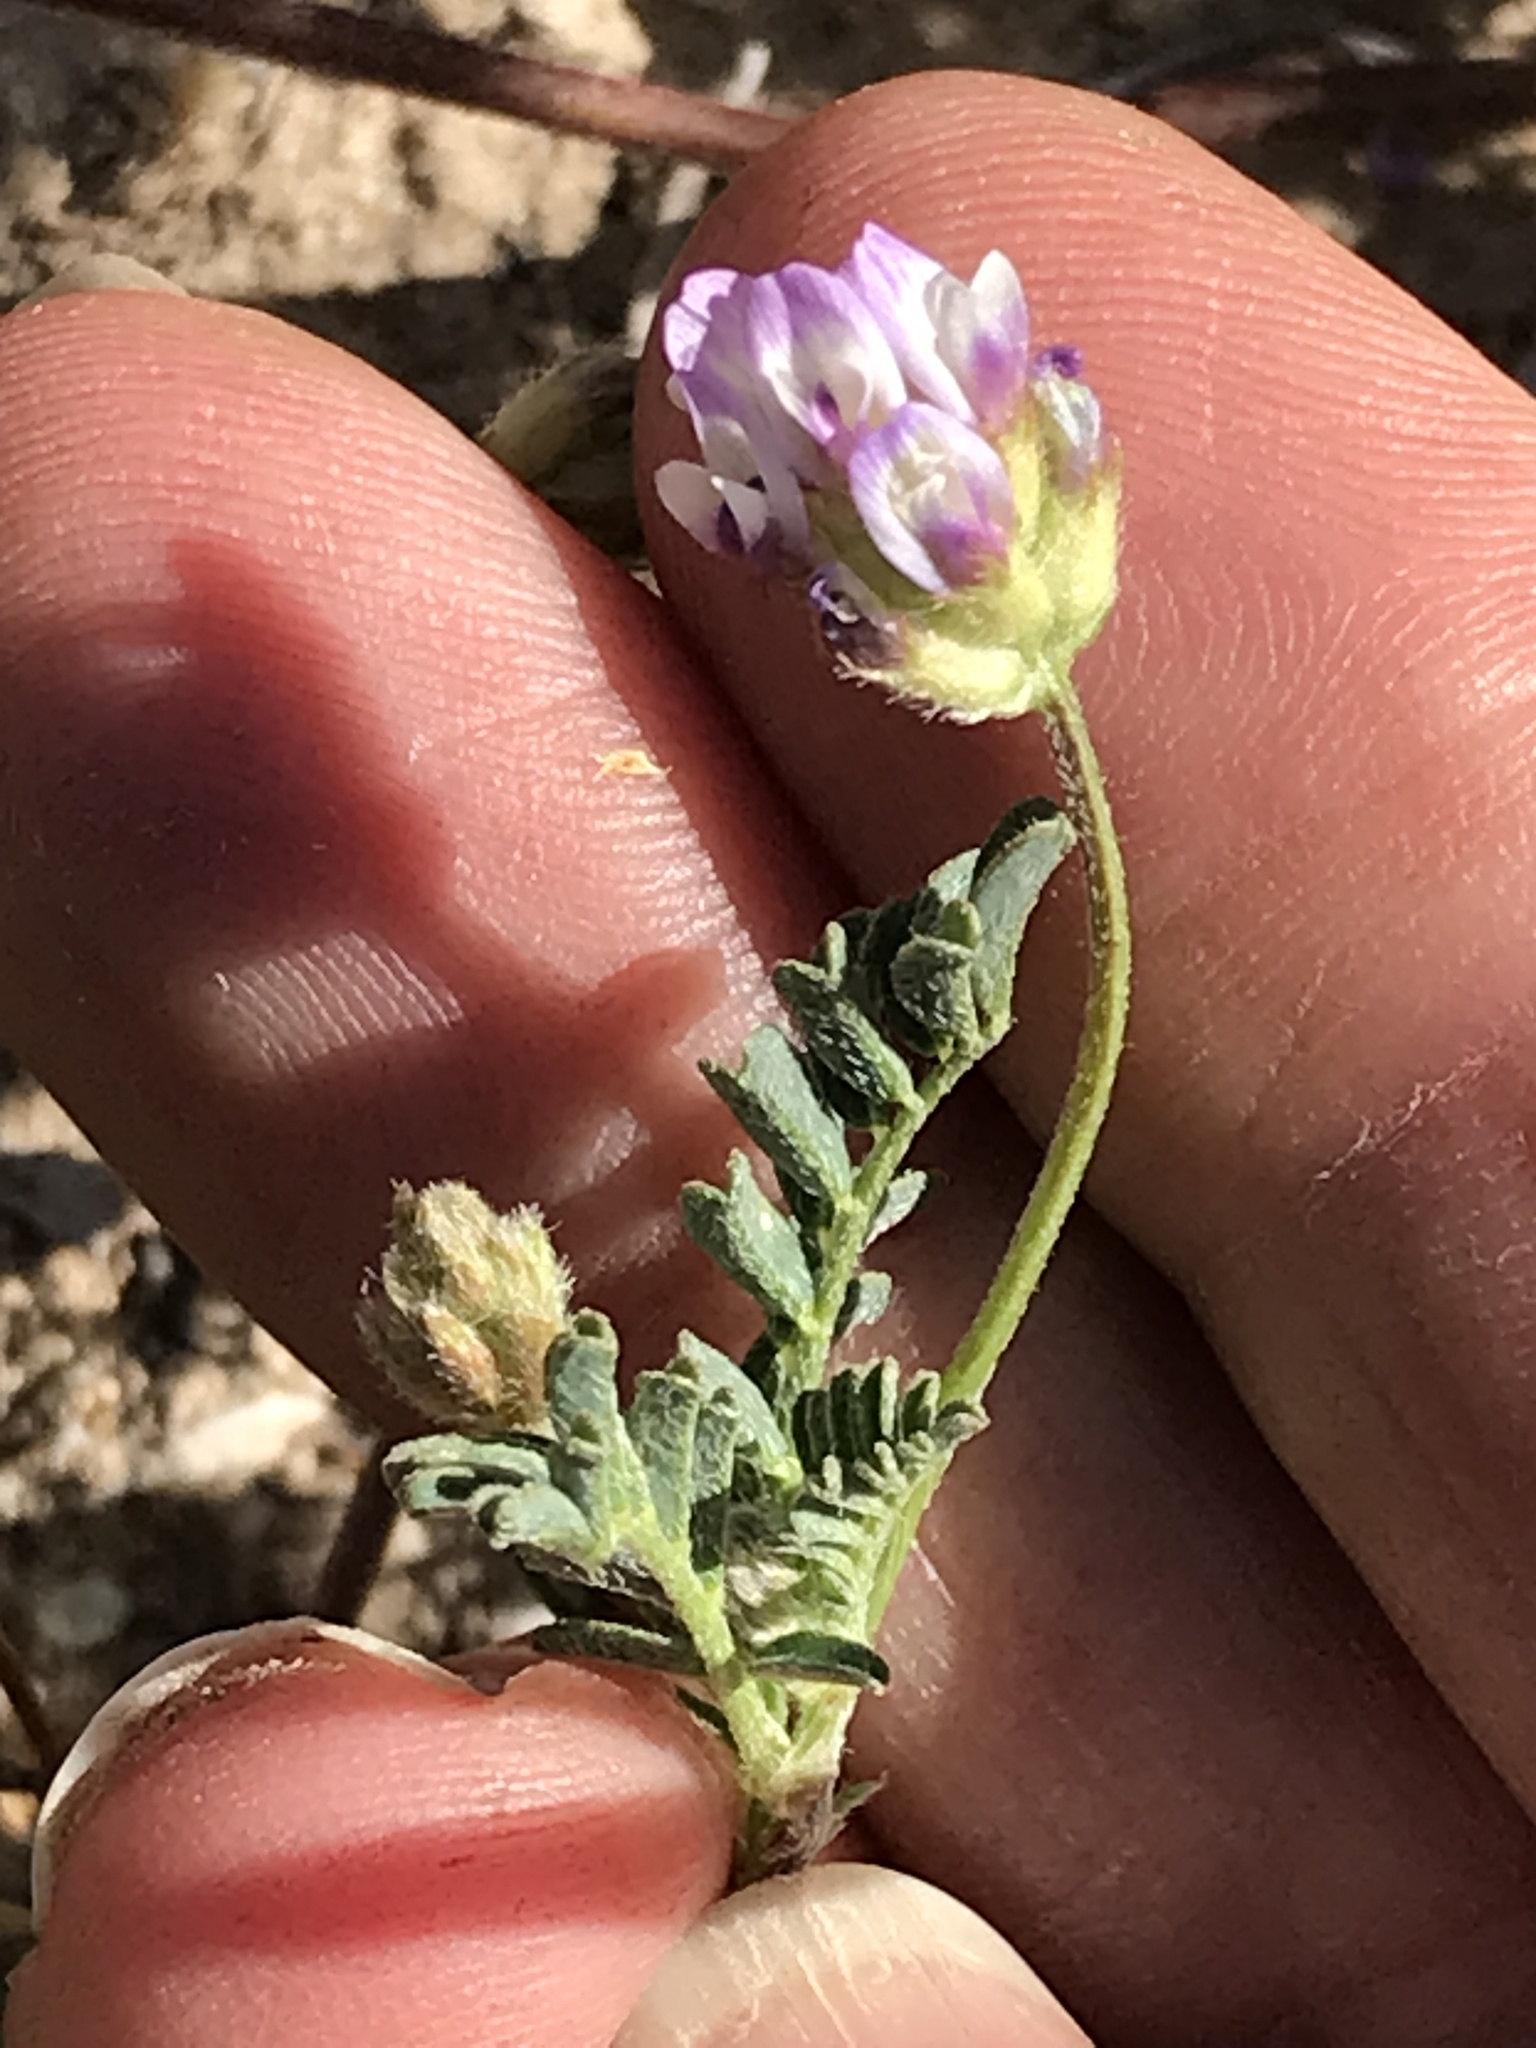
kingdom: Plantae
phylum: Tracheophyta
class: Magnoliopsida
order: Fabales
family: Fabaceae
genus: Astragalus
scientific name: Astragalus didymocarpus
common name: Dwarf white milkvetch
